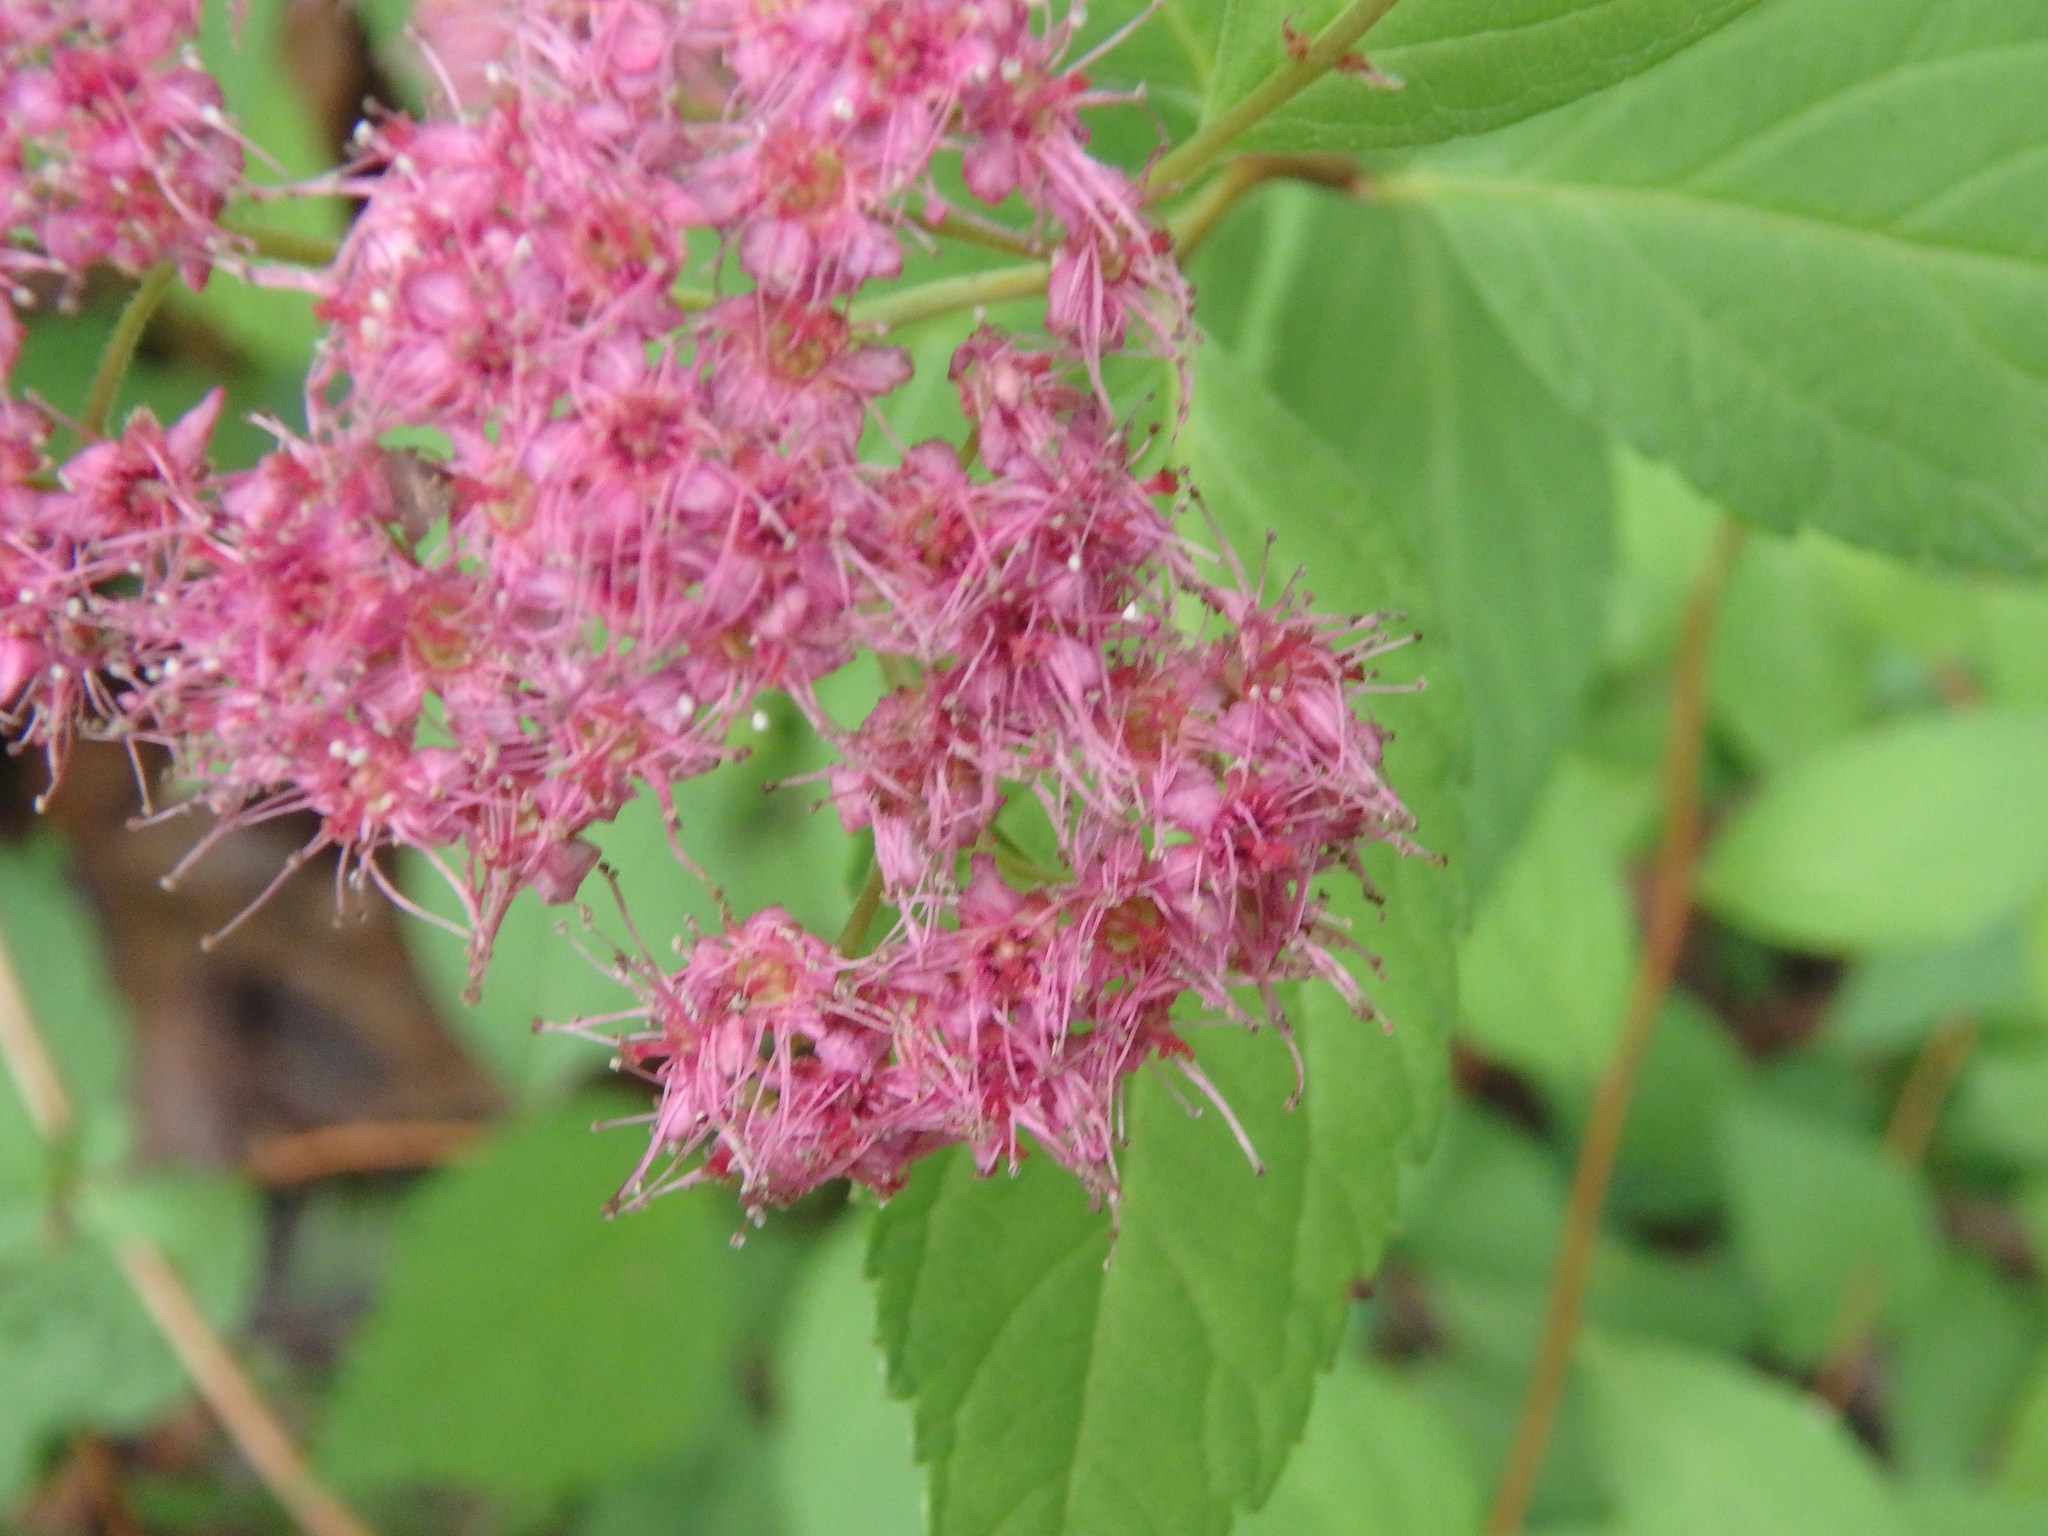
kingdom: Plantae
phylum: Tracheophyta
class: Magnoliopsida
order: Rosales
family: Rosaceae
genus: Spiraea
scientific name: Spiraea japonica
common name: Japanese spiraea
